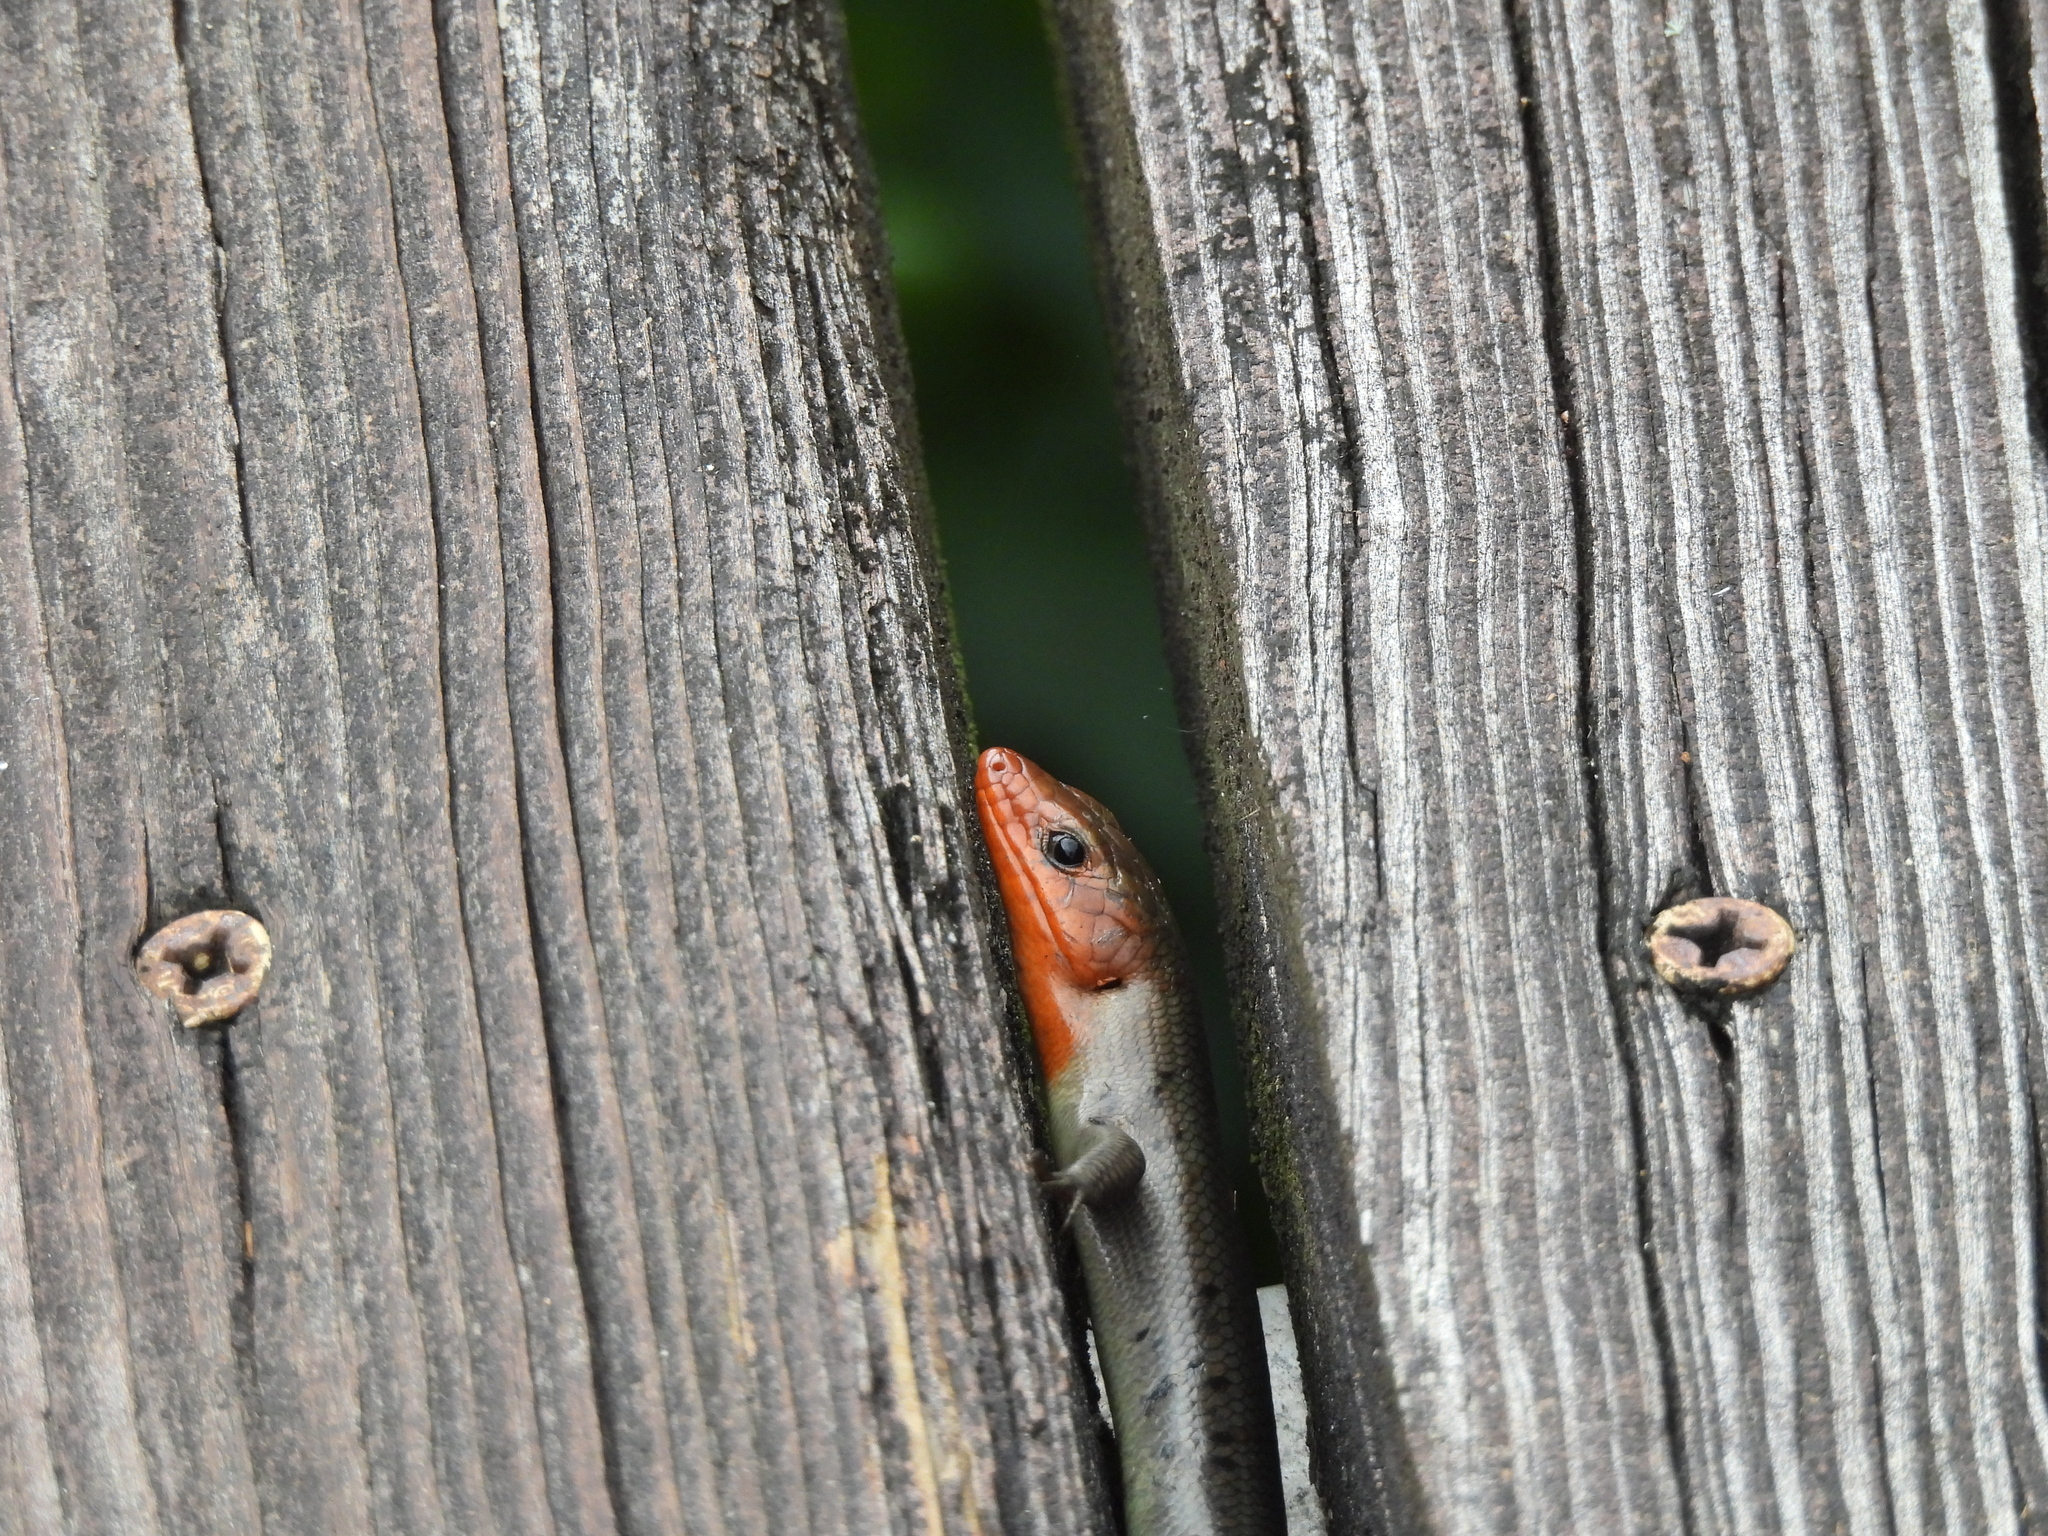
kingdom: Animalia
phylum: Chordata
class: Squamata
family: Scincidae
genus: Plestiodon
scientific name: Plestiodon fasciatus
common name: Five-lined skink
